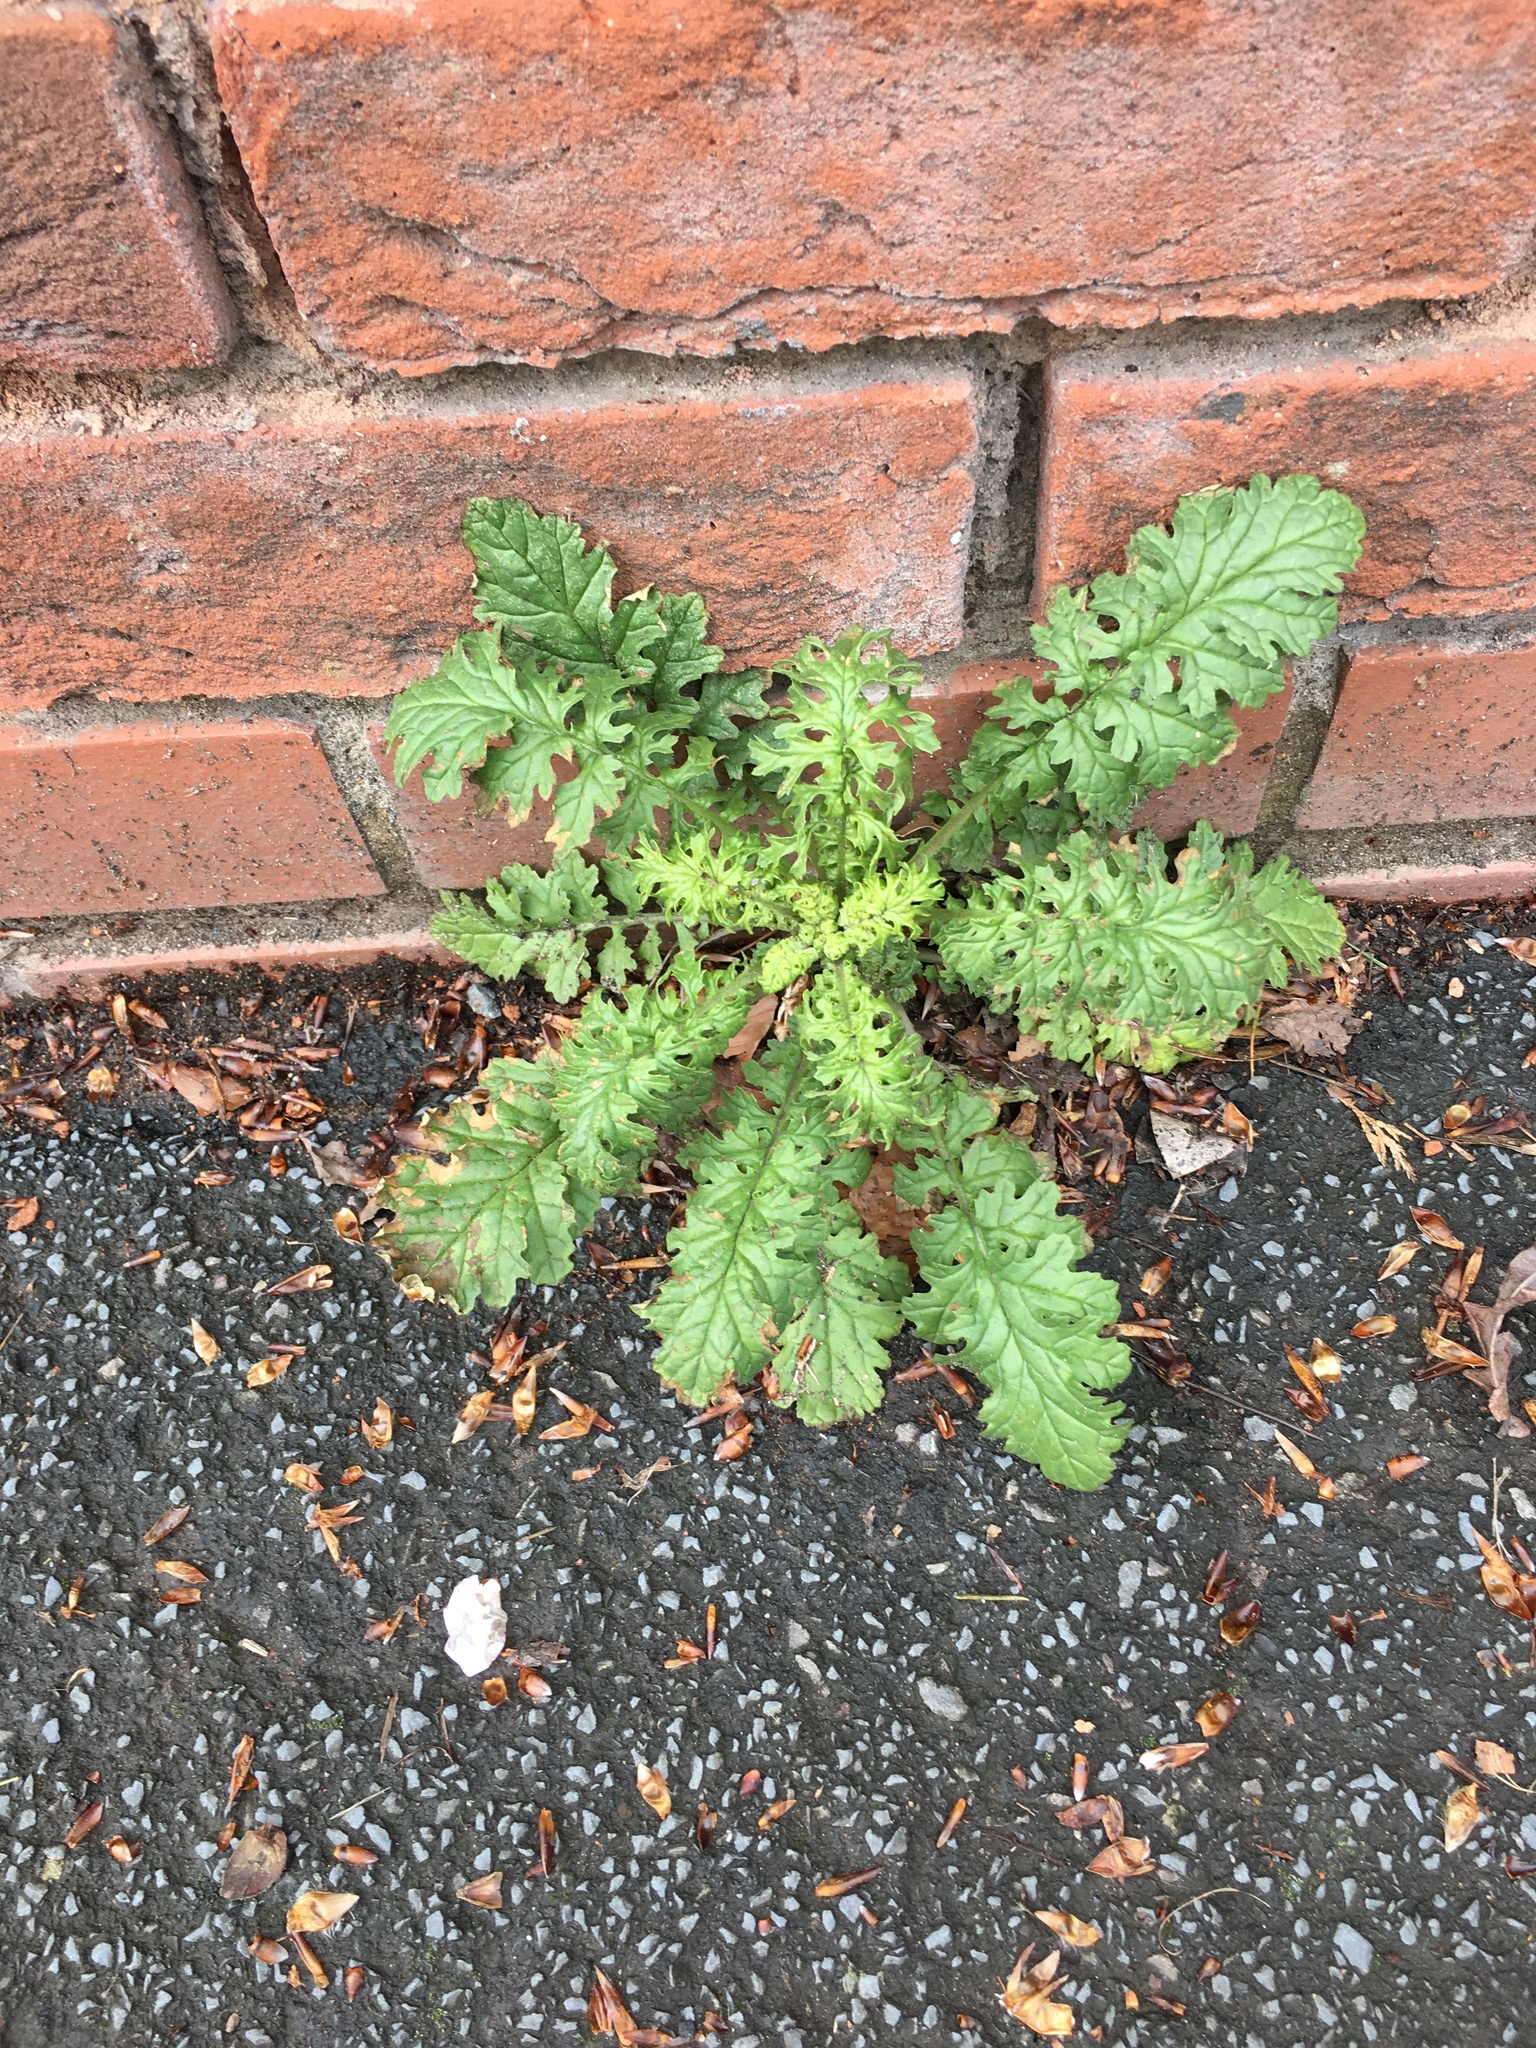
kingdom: Plantae
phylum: Tracheophyta
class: Magnoliopsida
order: Asterales
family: Asteraceae
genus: Jacobaea
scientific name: Jacobaea vulgaris
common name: Stinking willie
